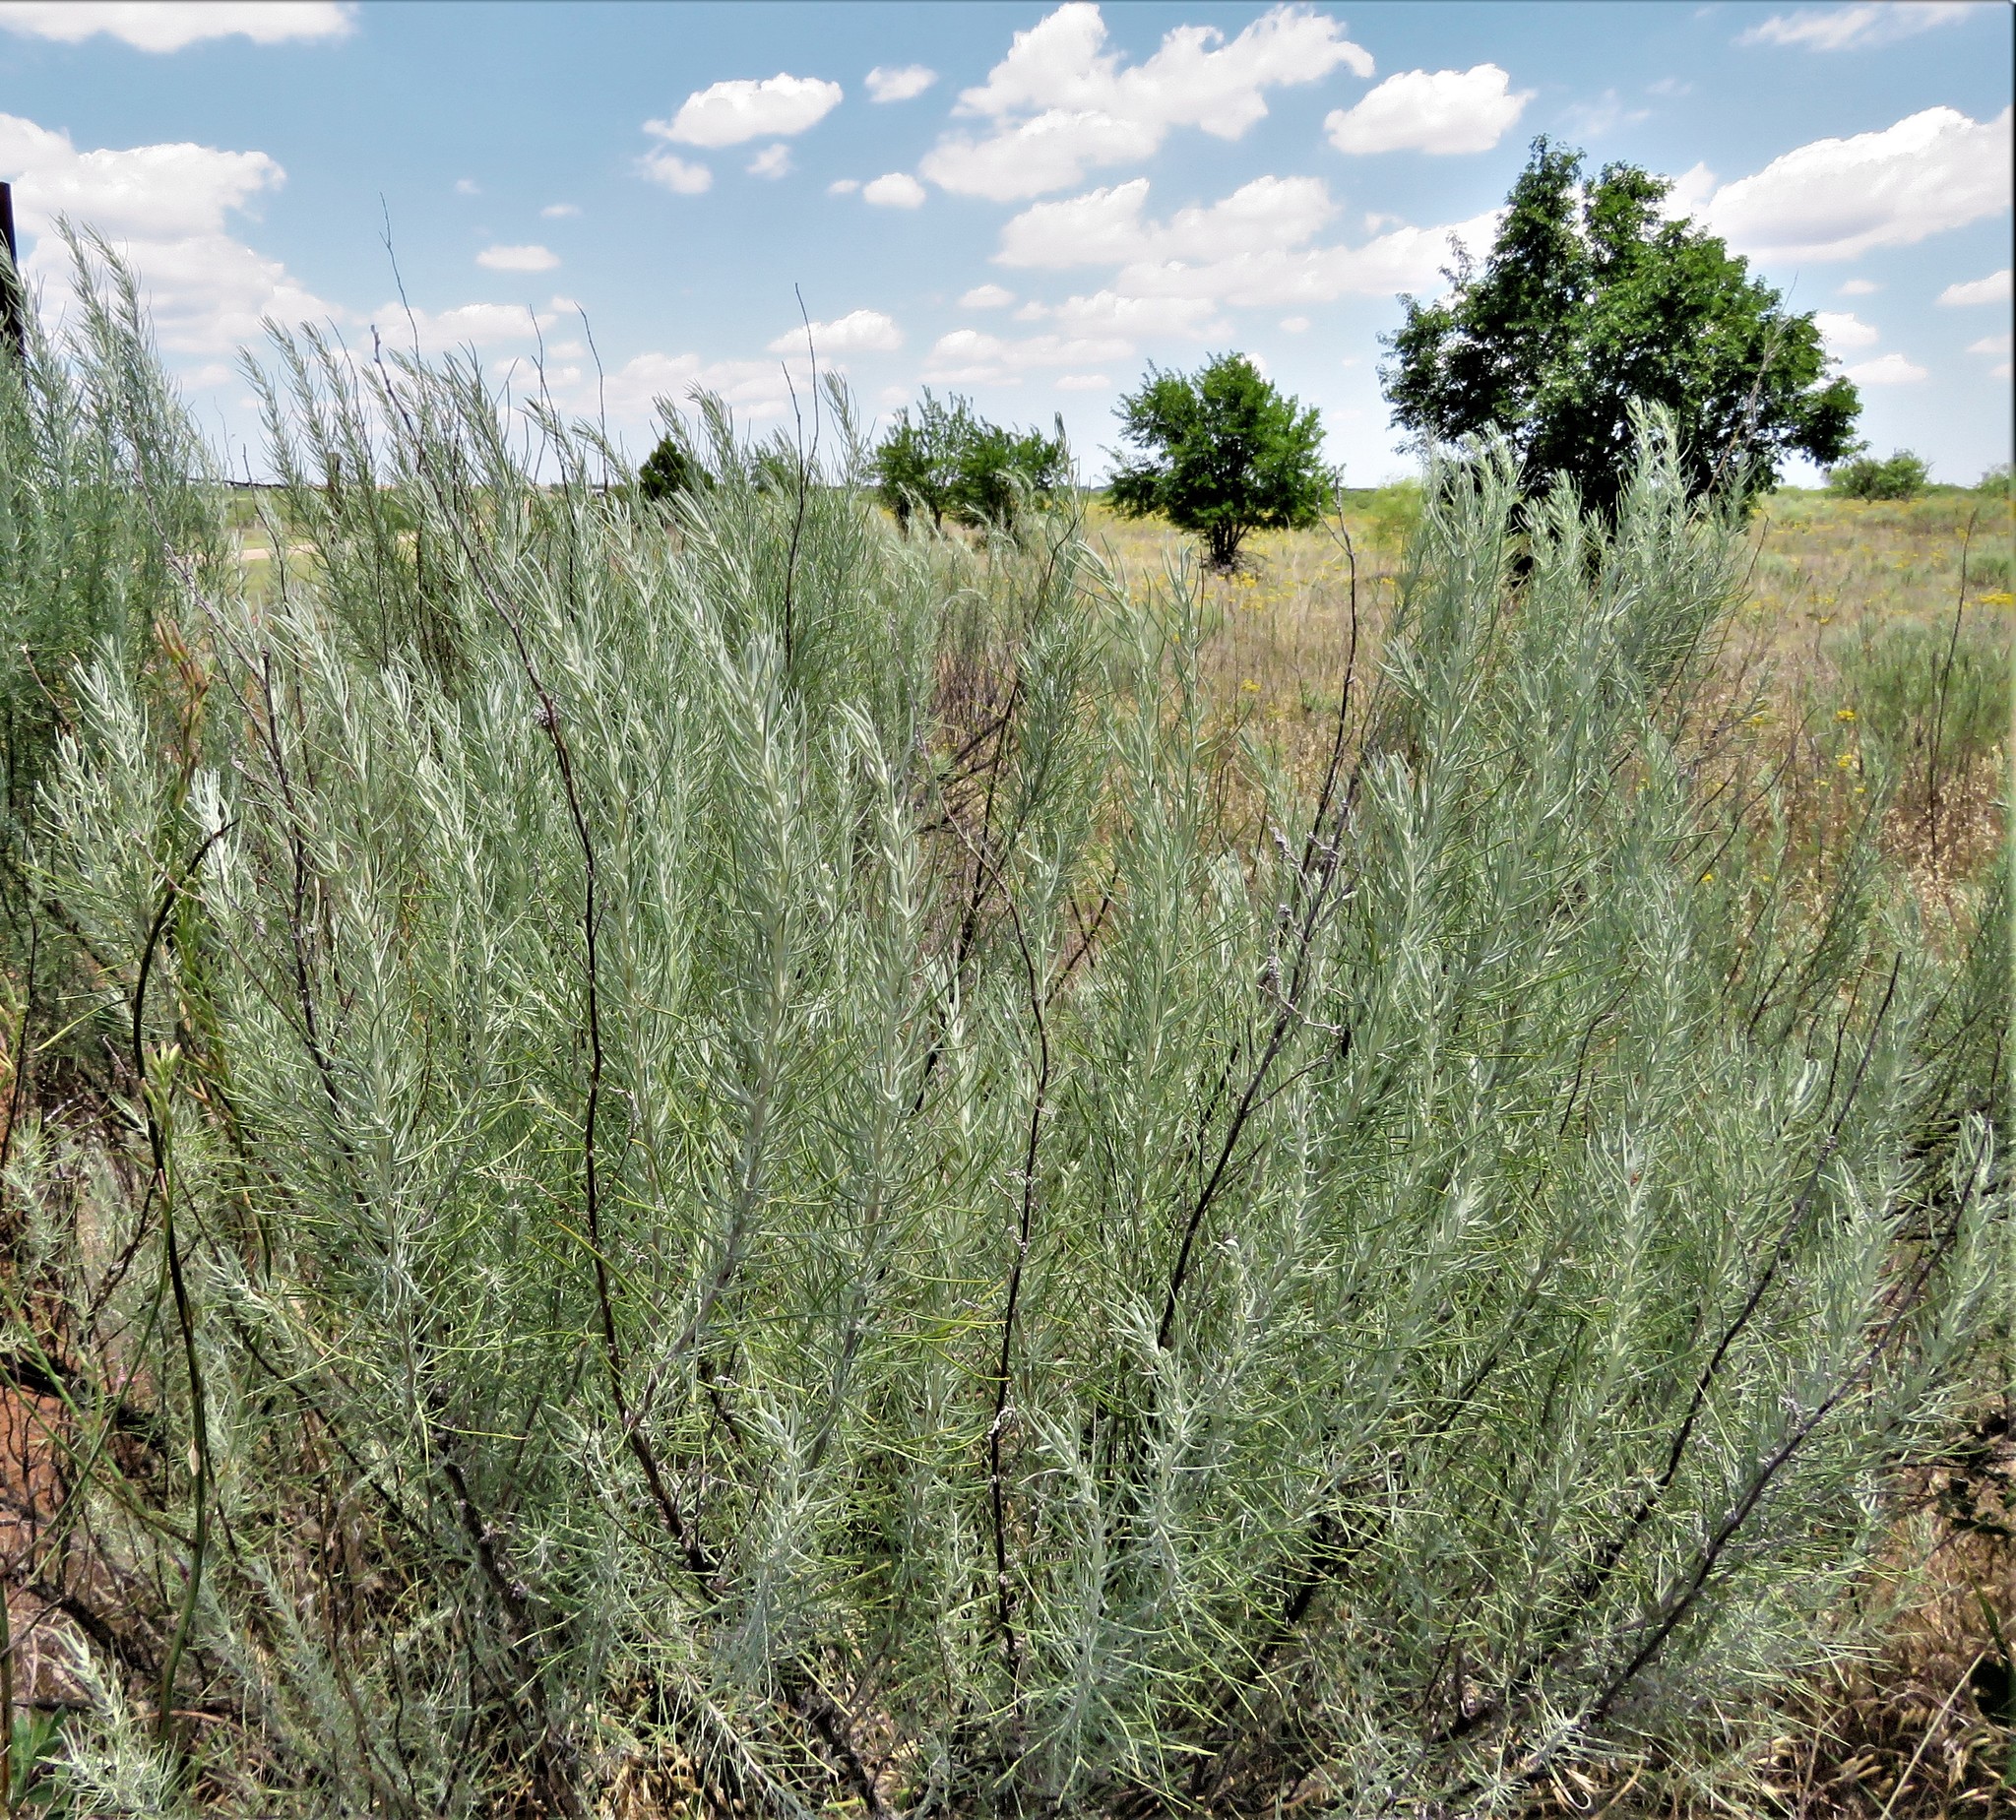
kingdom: Plantae
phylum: Tracheophyta
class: Magnoliopsida
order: Asterales
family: Asteraceae
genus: Artemisia
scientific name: Artemisia filifolia
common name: Sand-sage
